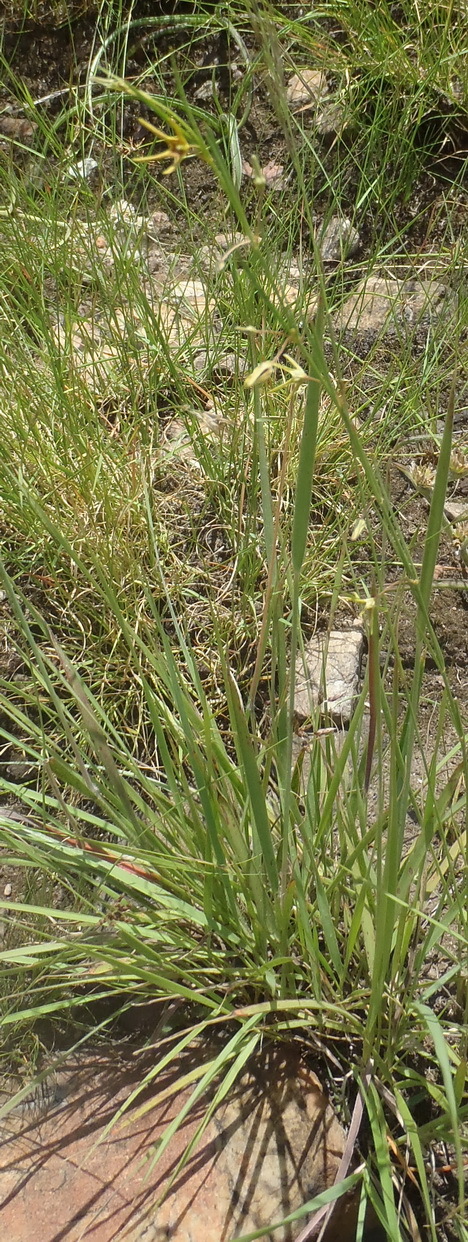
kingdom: Plantae
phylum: Tracheophyta
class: Magnoliopsida
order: Gentianales
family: Apocynaceae
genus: Ceropegia
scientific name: Ceropegia chlorantha
